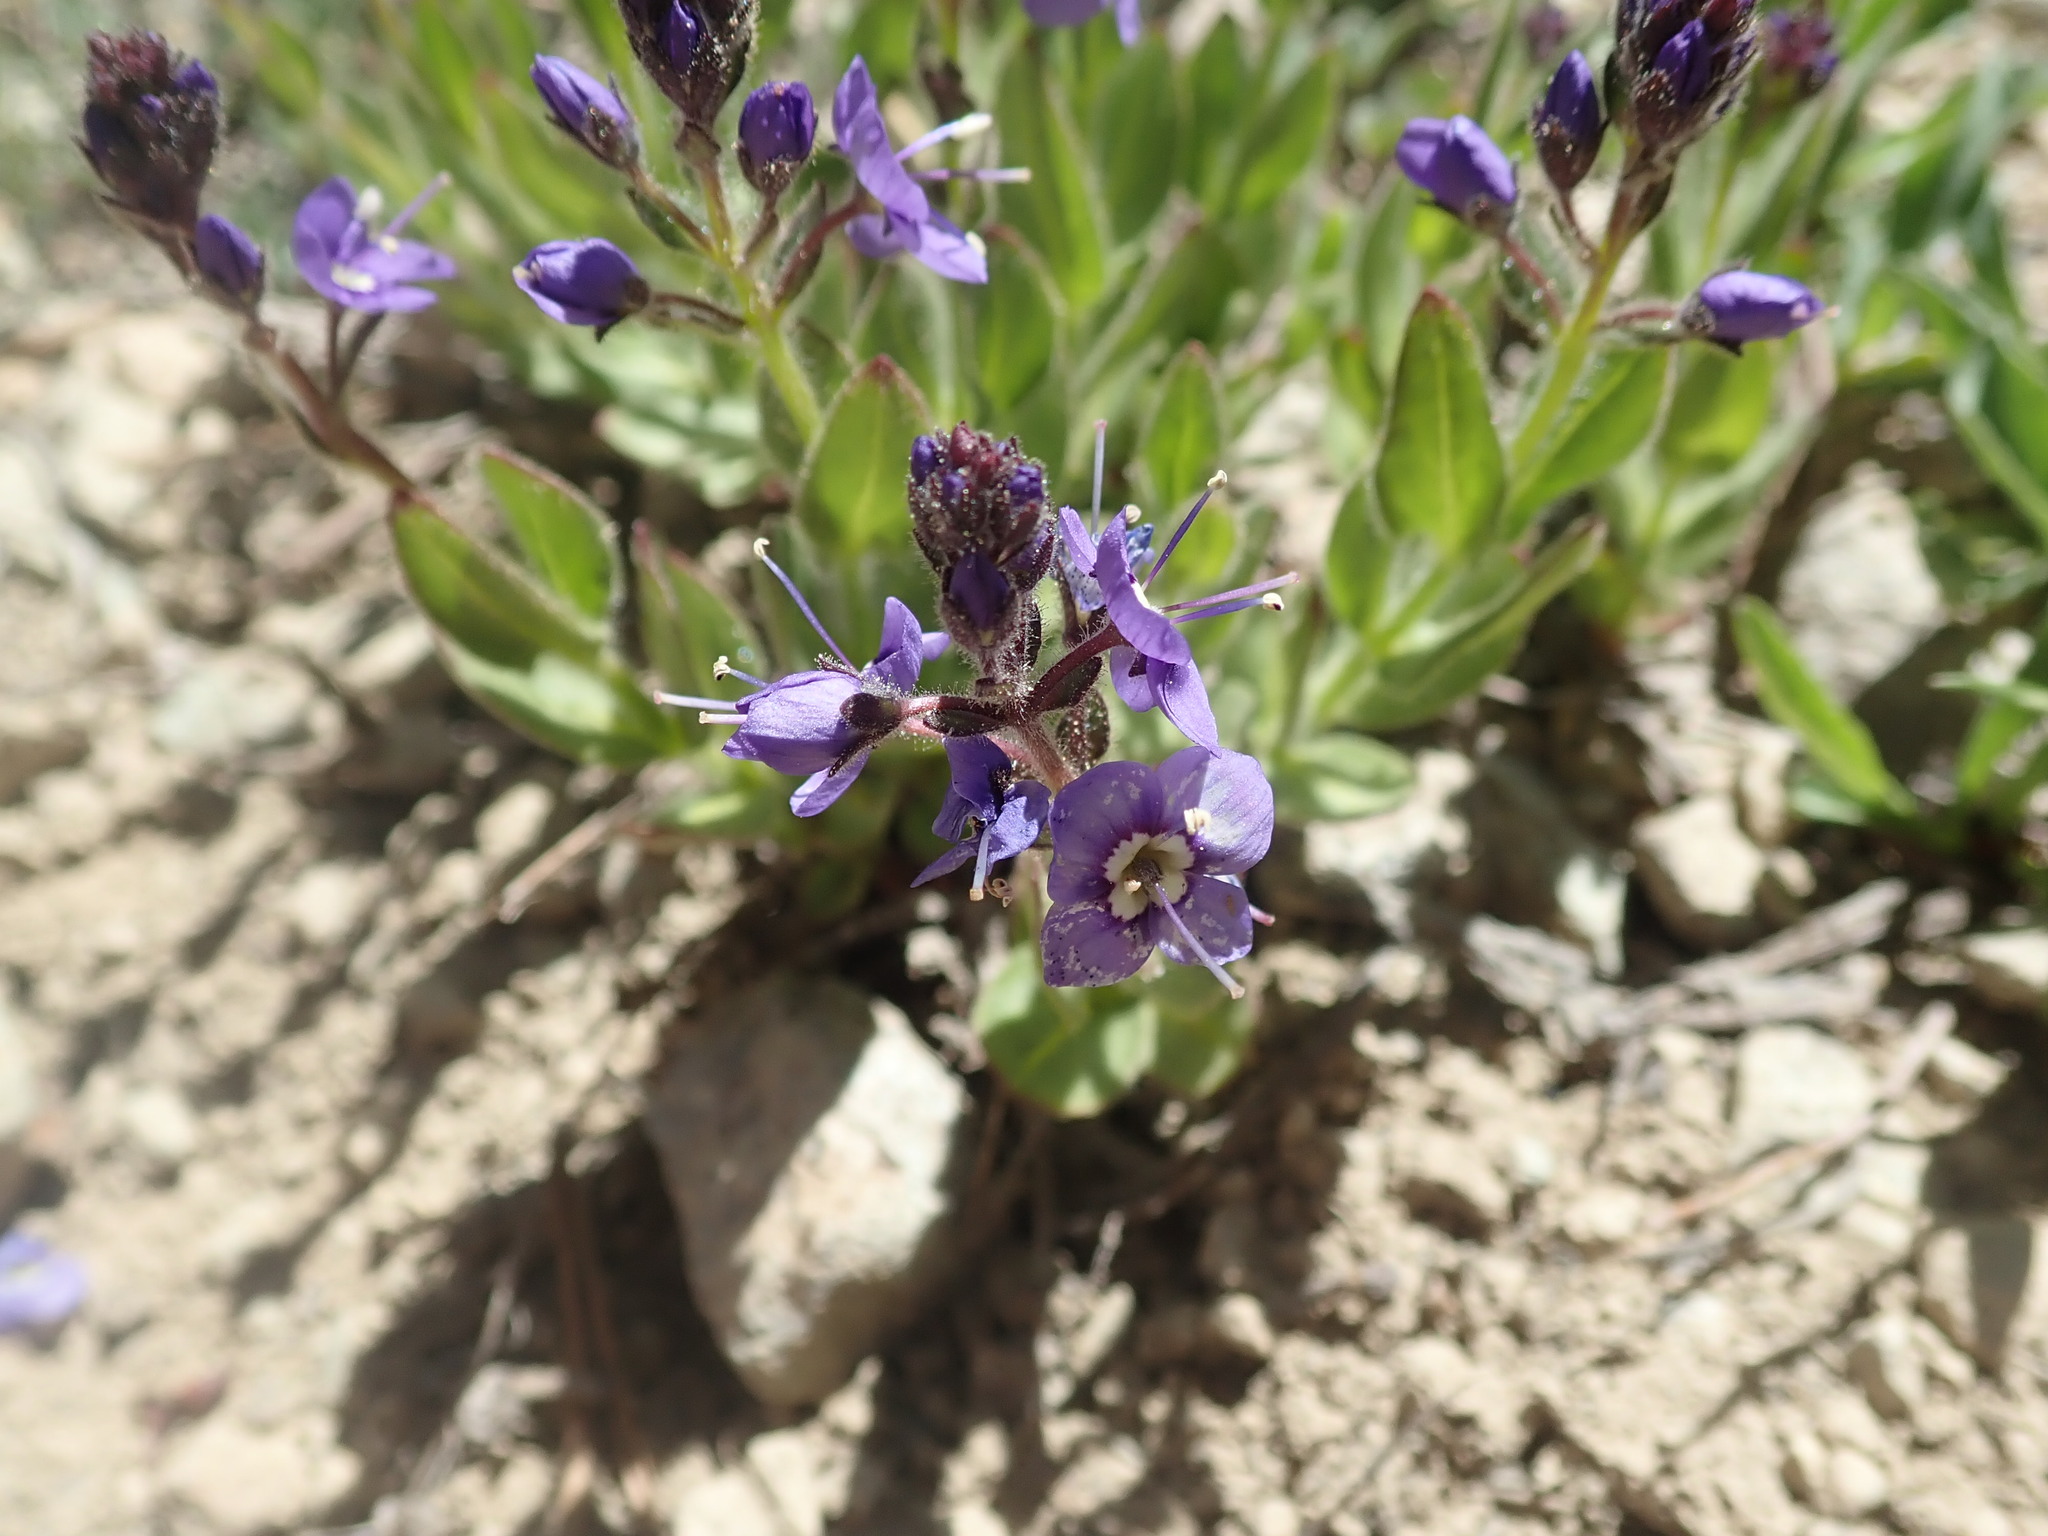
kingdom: Plantae
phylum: Tracheophyta
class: Magnoliopsida
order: Lamiales
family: Plantaginaceae
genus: Veronica
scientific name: Veronica copelandii
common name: Copeland's speedwell
